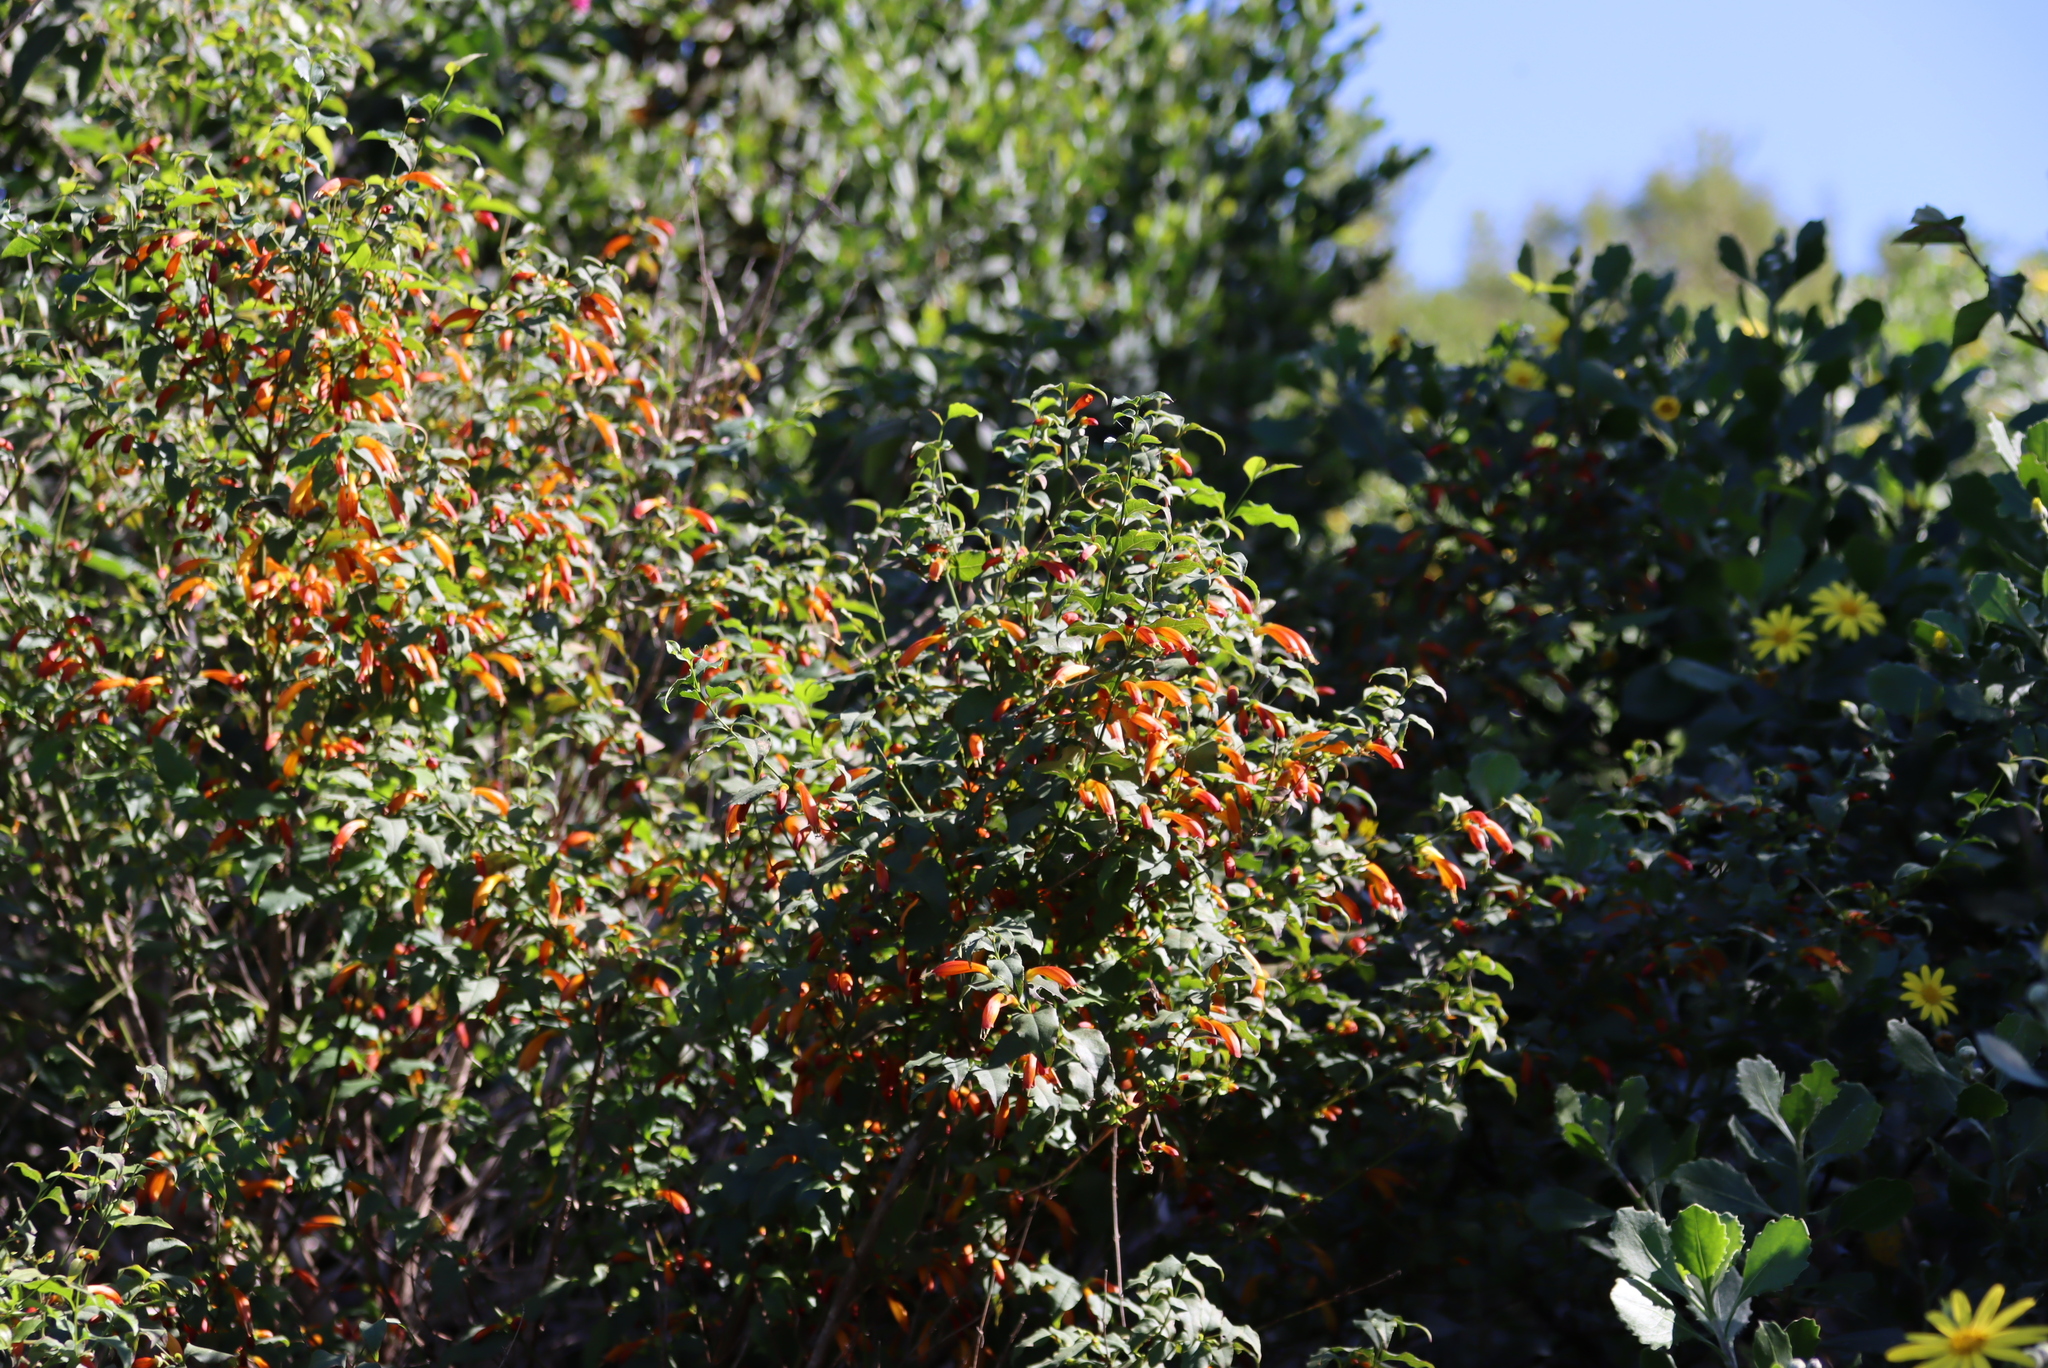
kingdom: Plantae
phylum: Tracheophyta
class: Magnoliopsida
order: Lamiales
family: Stilbaceae
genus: Halleria
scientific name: Halleria lucida
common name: Tree fuschia
